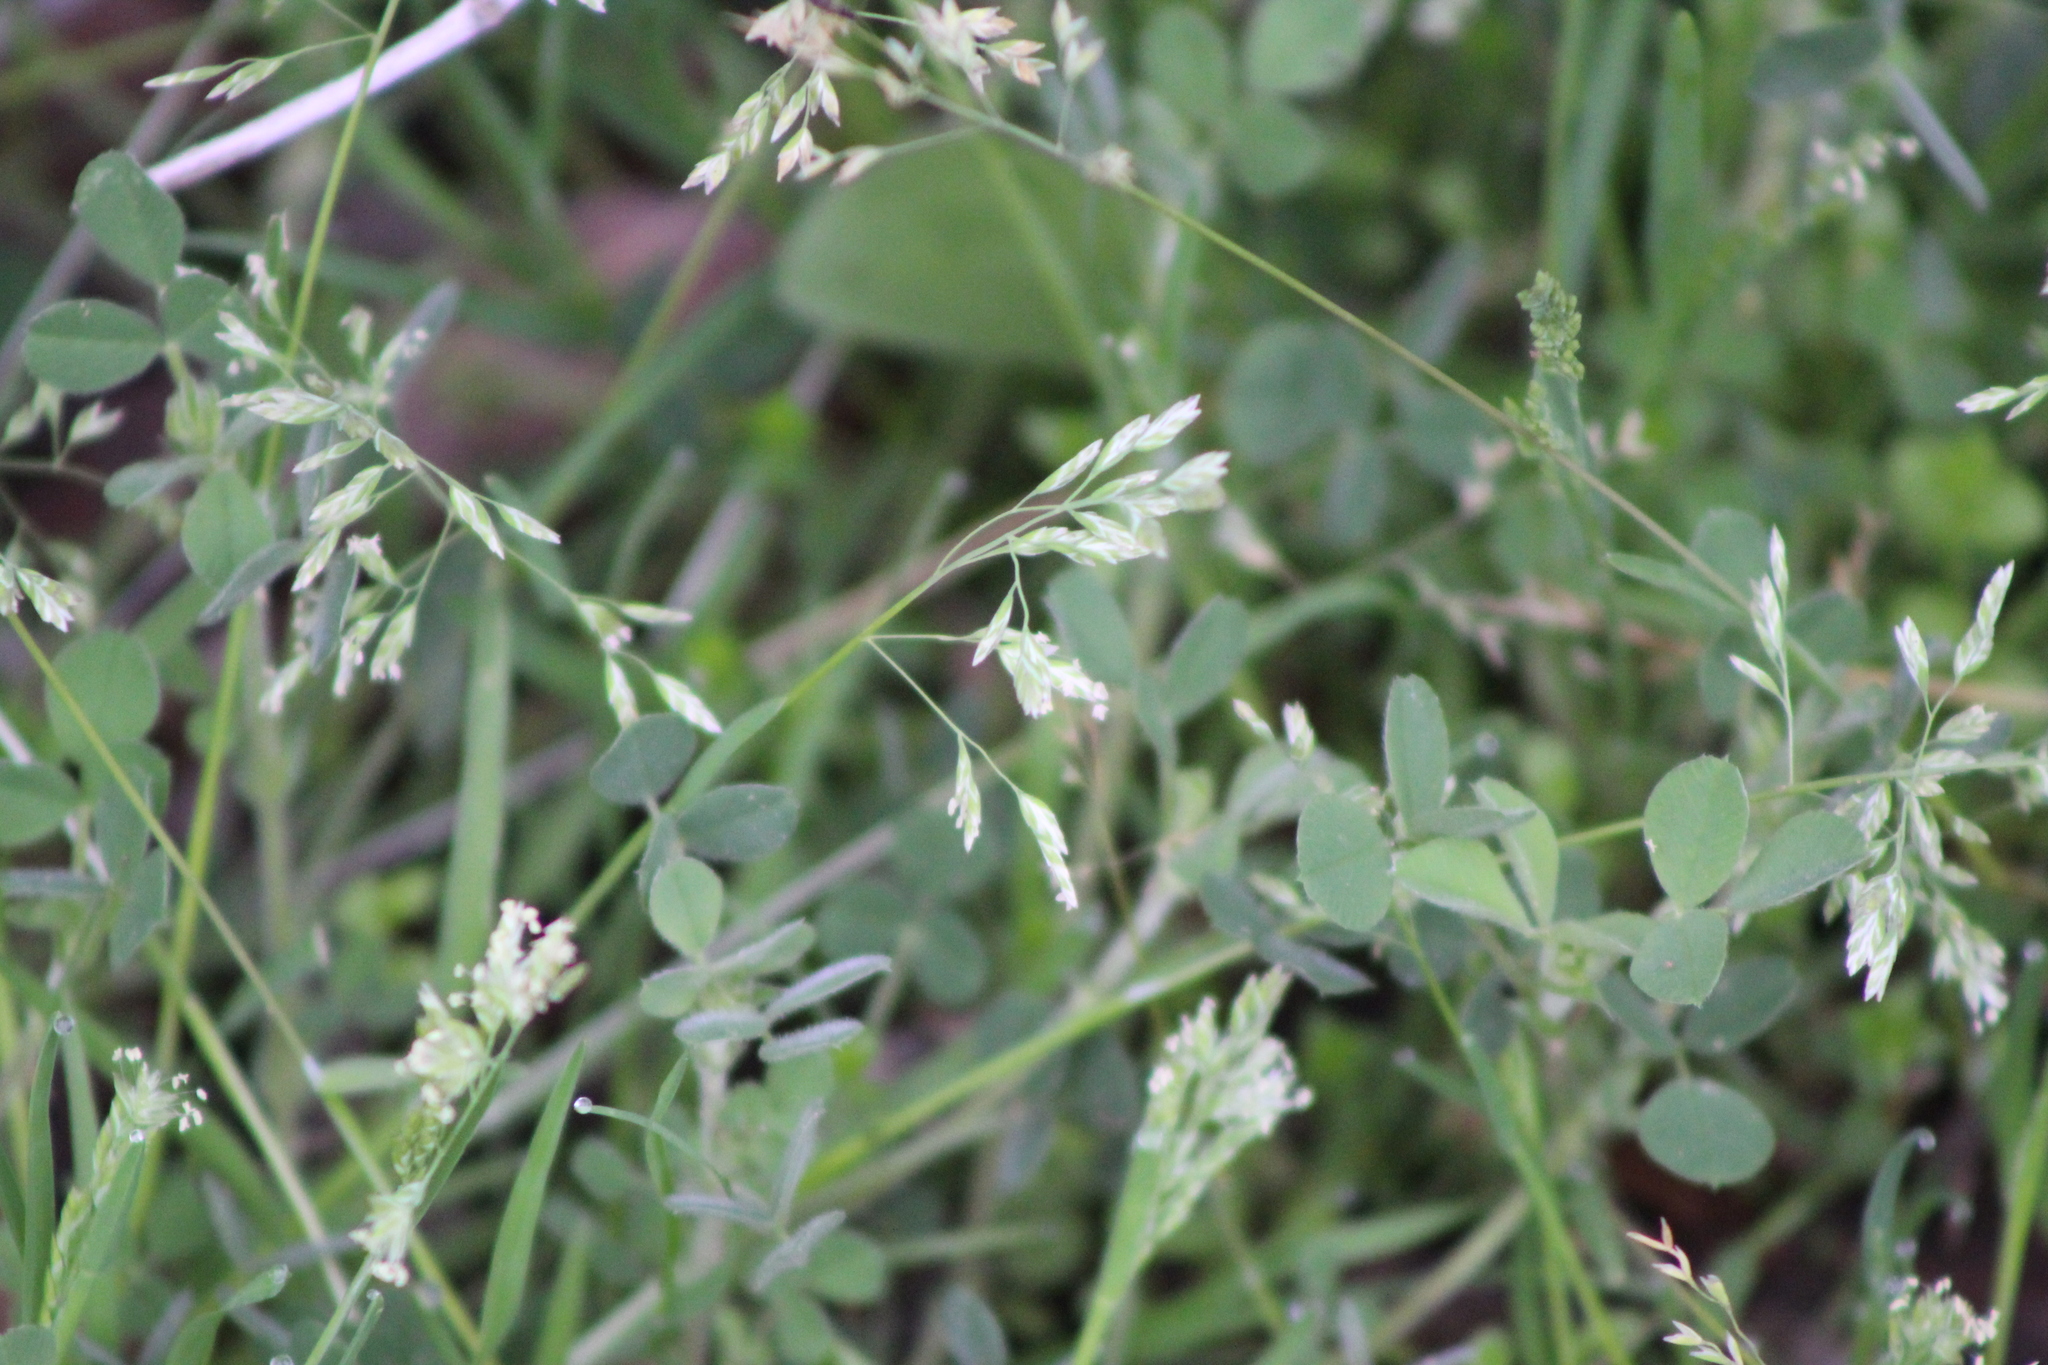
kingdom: Plantae
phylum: Tracheophyta
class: Liliopsida
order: Poales
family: Poaceae
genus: Poa
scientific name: Poa annua
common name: Annual bluegrass
